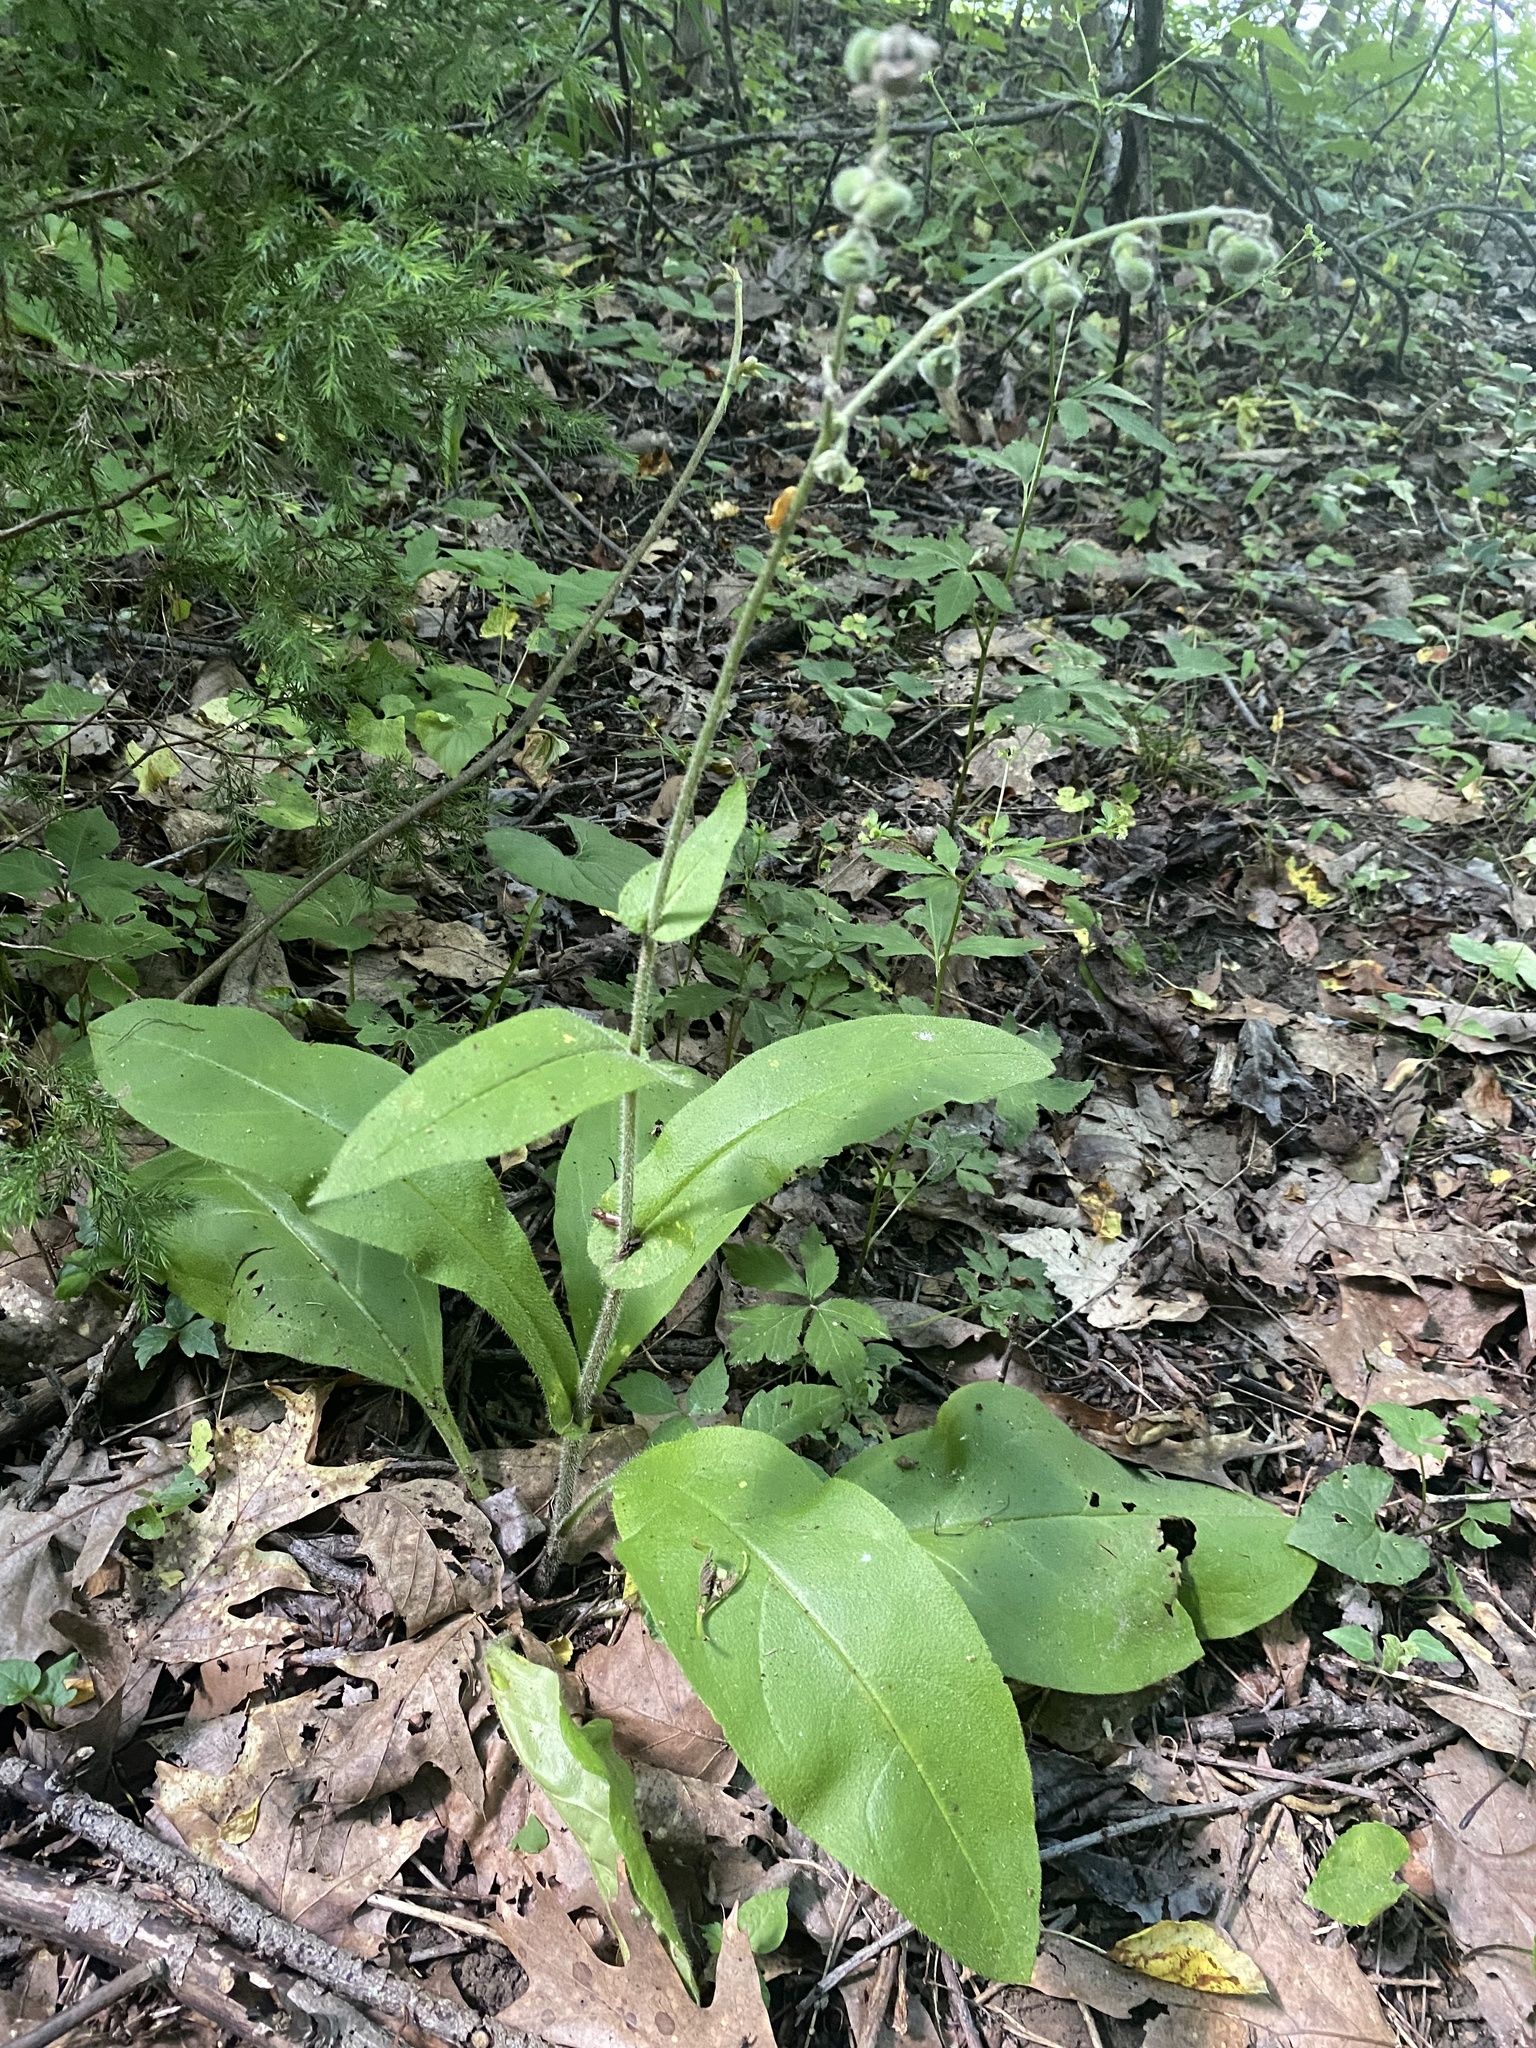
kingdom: Plantae
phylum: Tracheophyta
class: Magnoliopsida
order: Boraginales
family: Boraginaceae
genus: Andersonglossum
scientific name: Andersonglossum virginianum
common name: Wild comfrey
